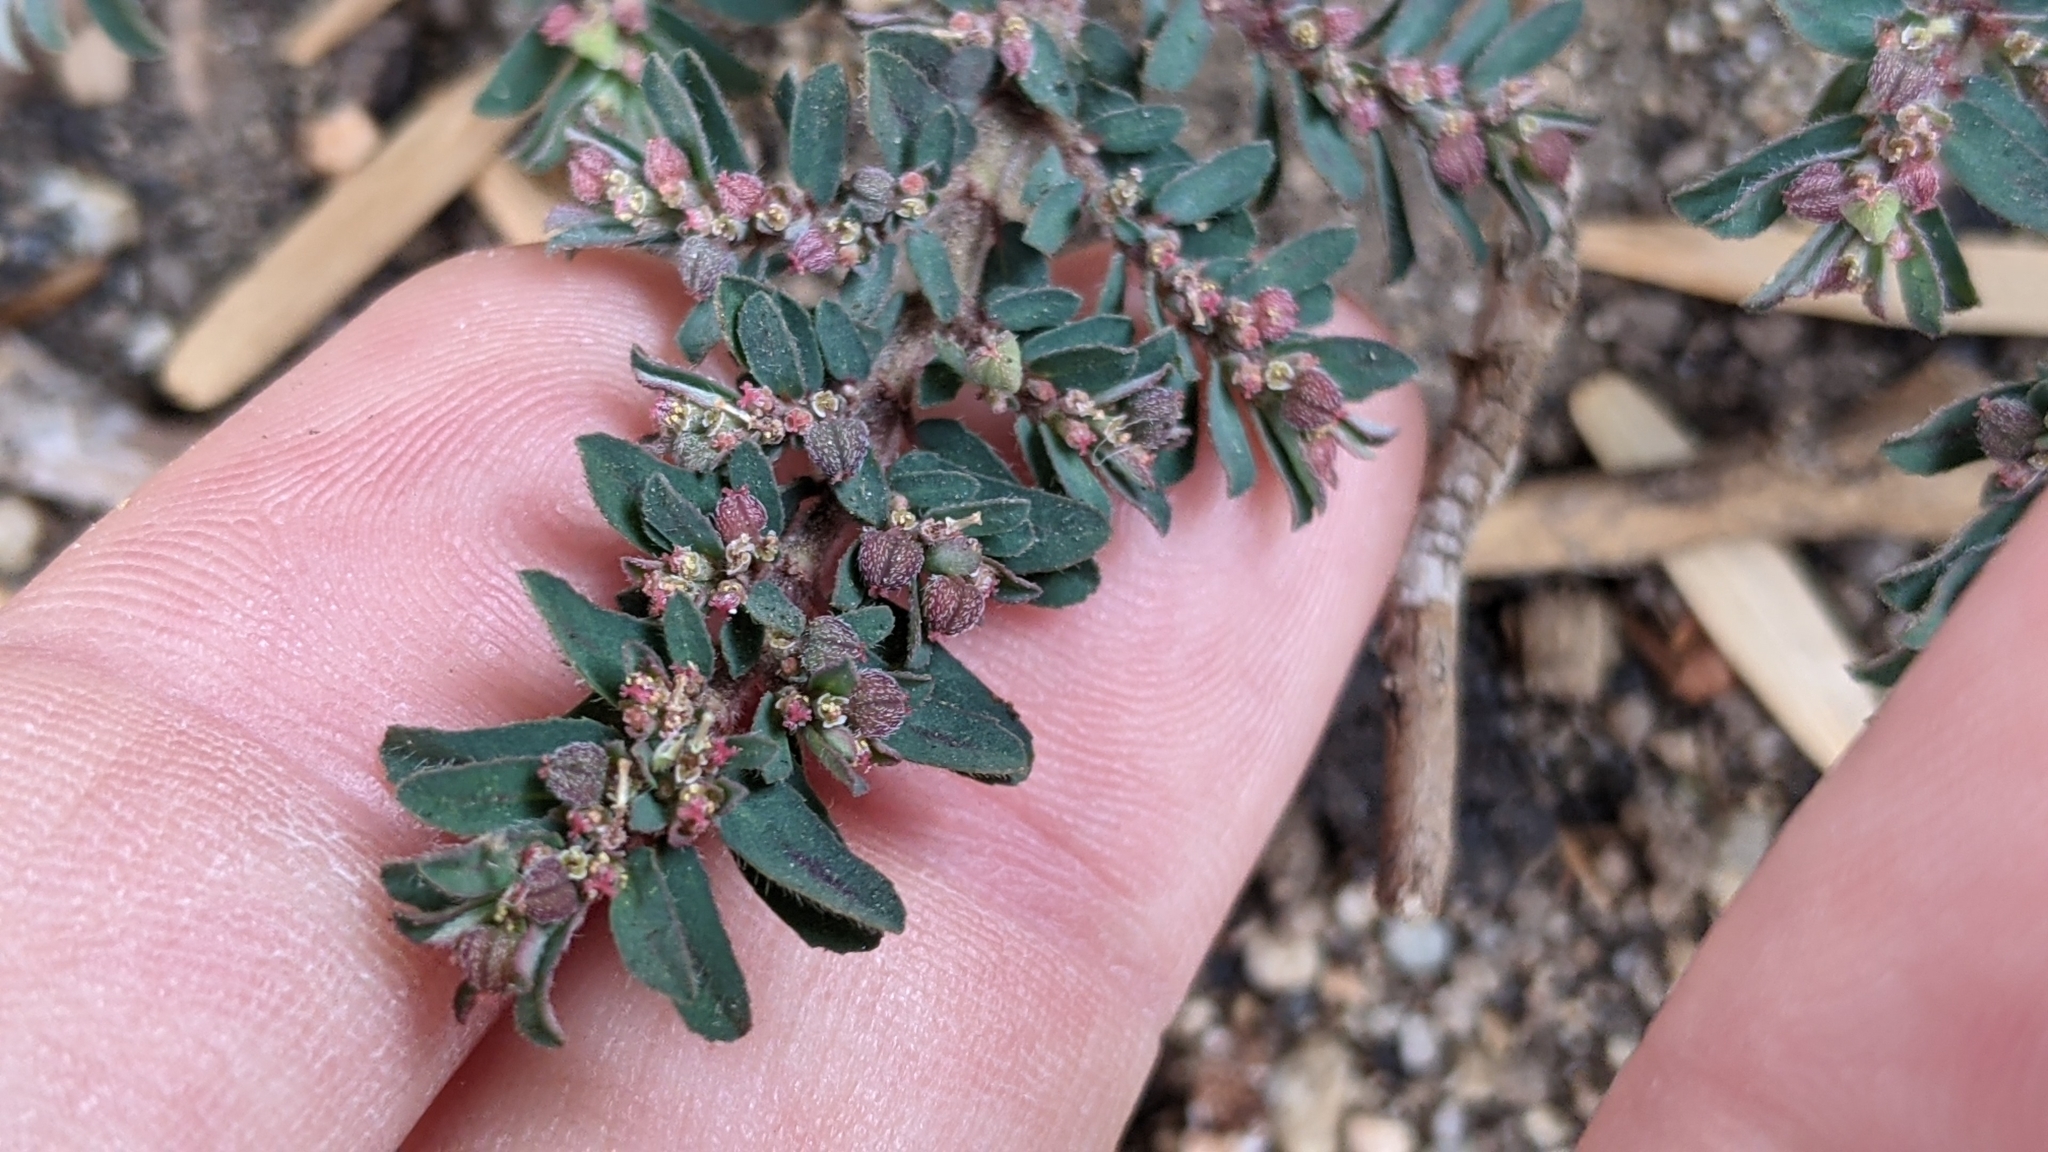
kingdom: Plantae
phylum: Tracheophyta
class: Magnoliopsida
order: Malpighiales
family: Euphorbiaceae
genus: Euphorbia
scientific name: Euphorbia maculata
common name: Spotted spurge
